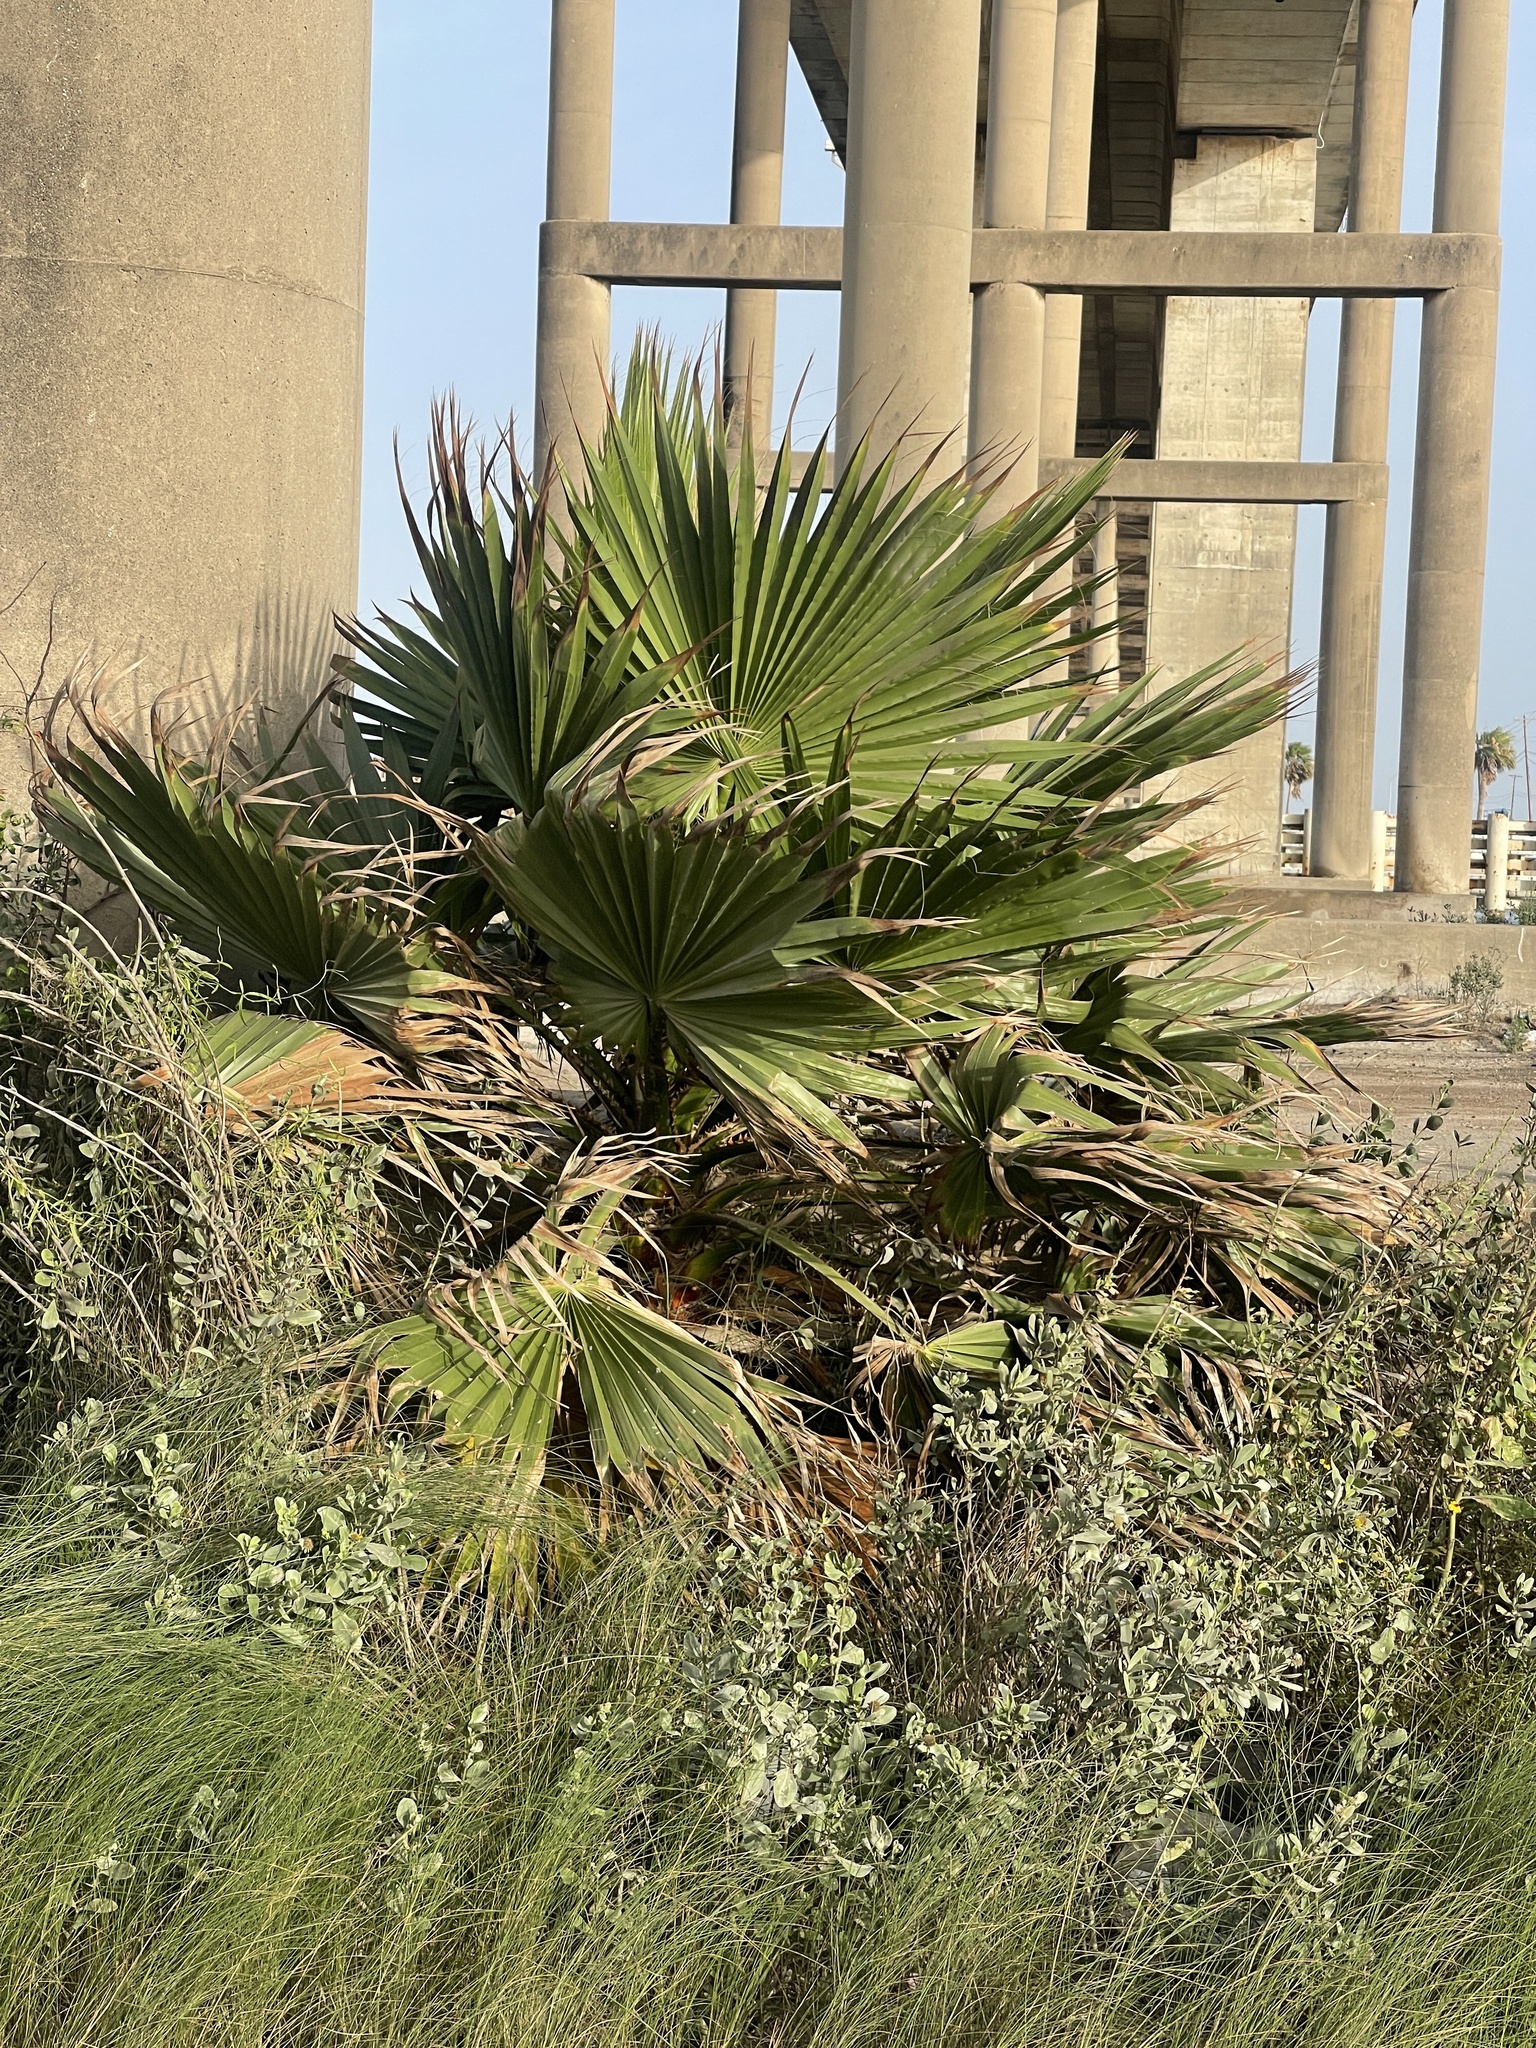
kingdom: Plantae
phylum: Tracheophyta
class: Liliopsida
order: Arecales
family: Arecaceae
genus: Washingtonia
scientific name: Washingtonia robusta
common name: Mexican fan palm
